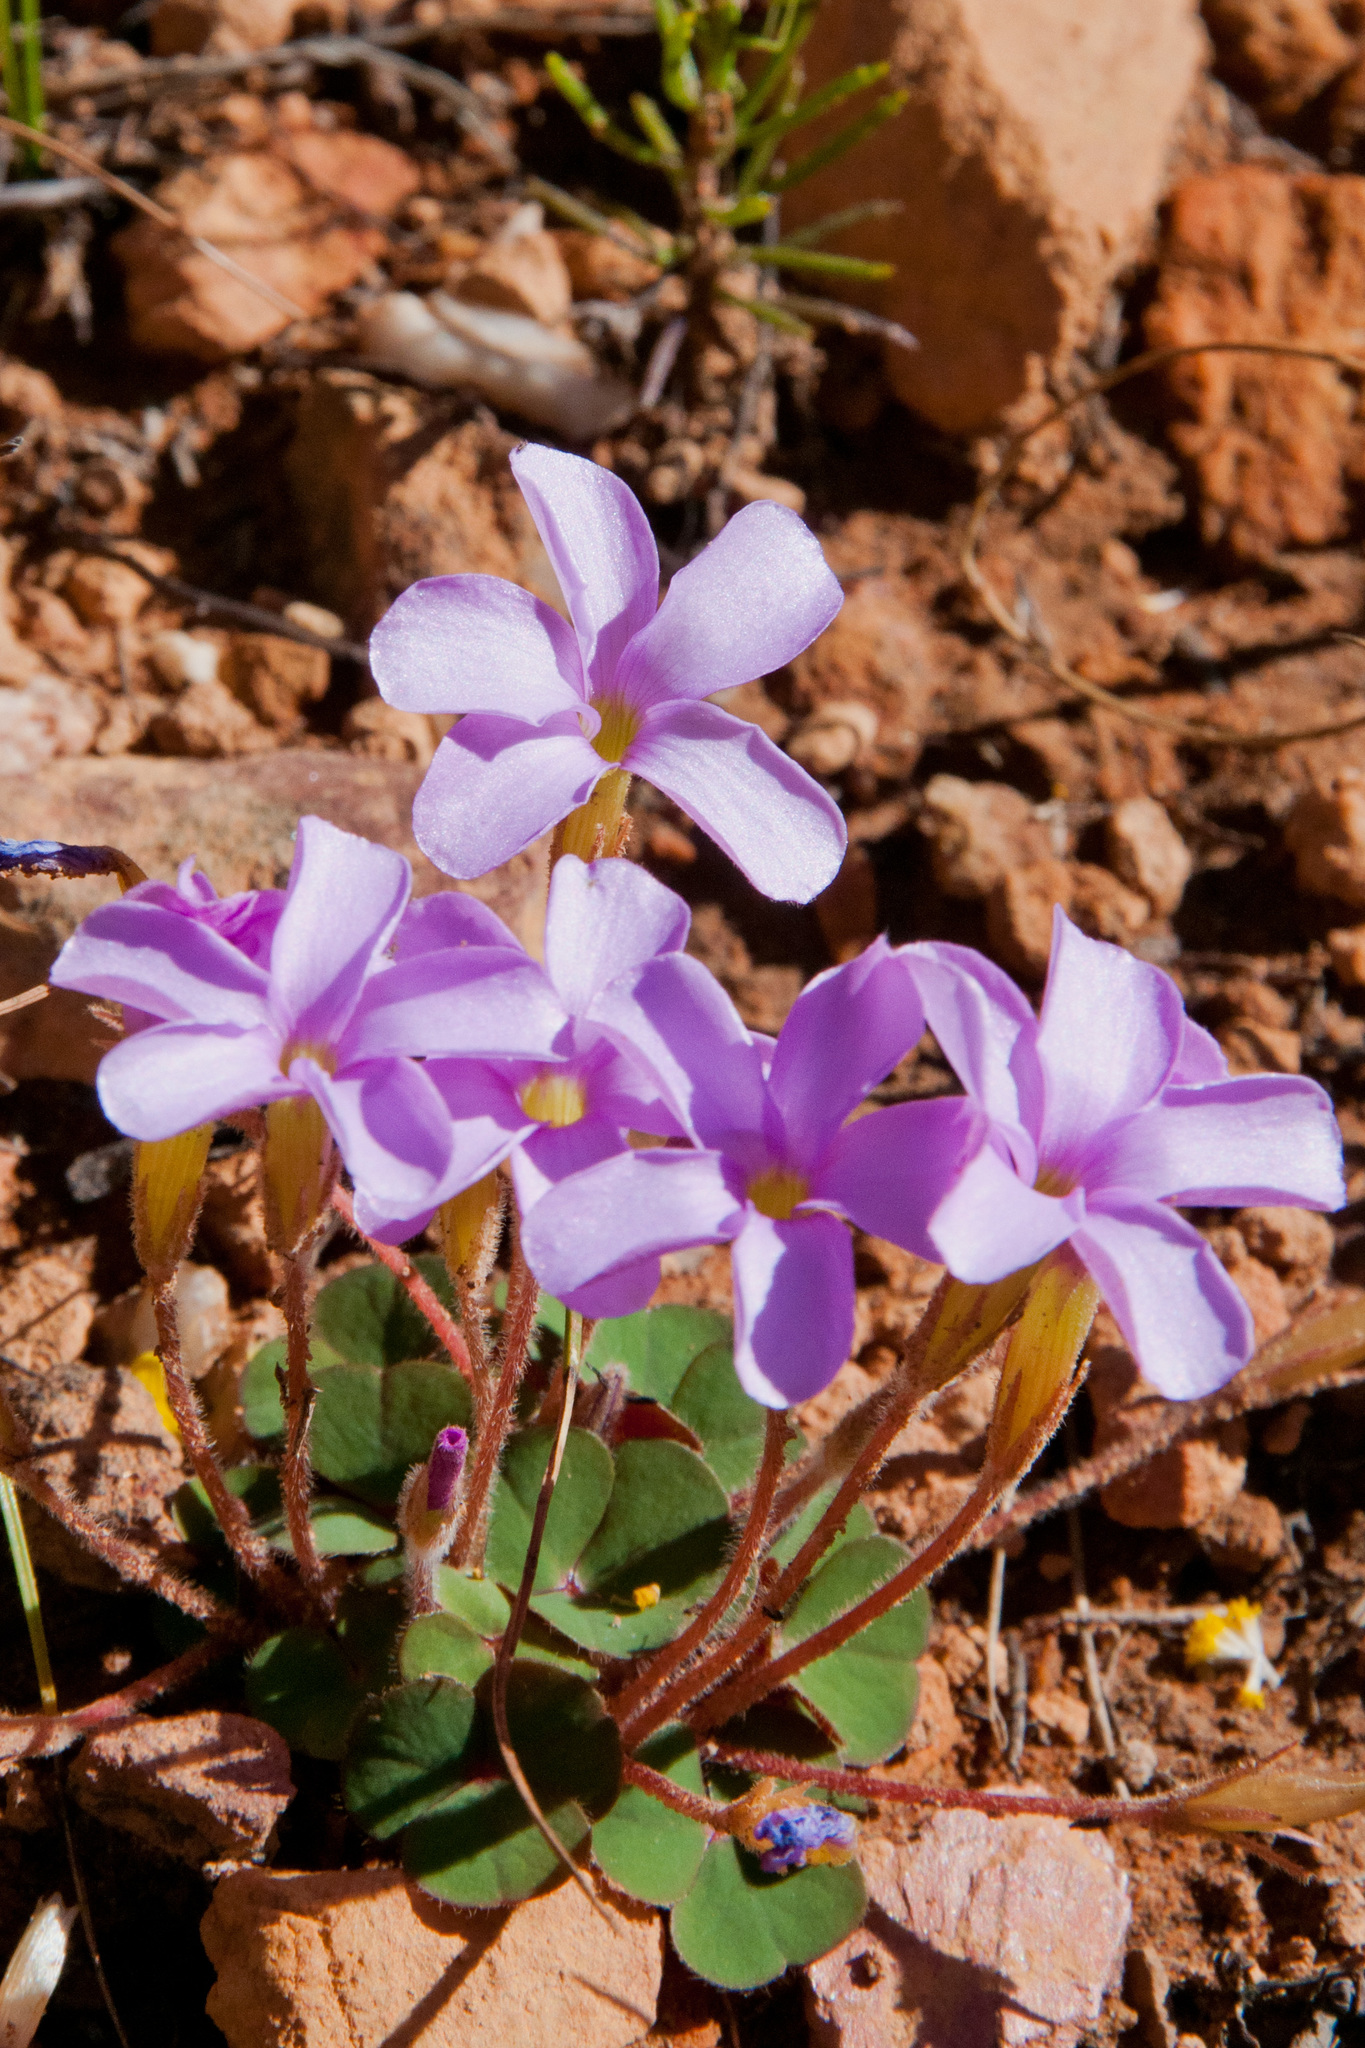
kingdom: Plantae
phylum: Tracheophyta
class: Magnoliopsida
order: Oxalidales
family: Oxalidaceae
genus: Oxalis
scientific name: Oxalis eckloniana
